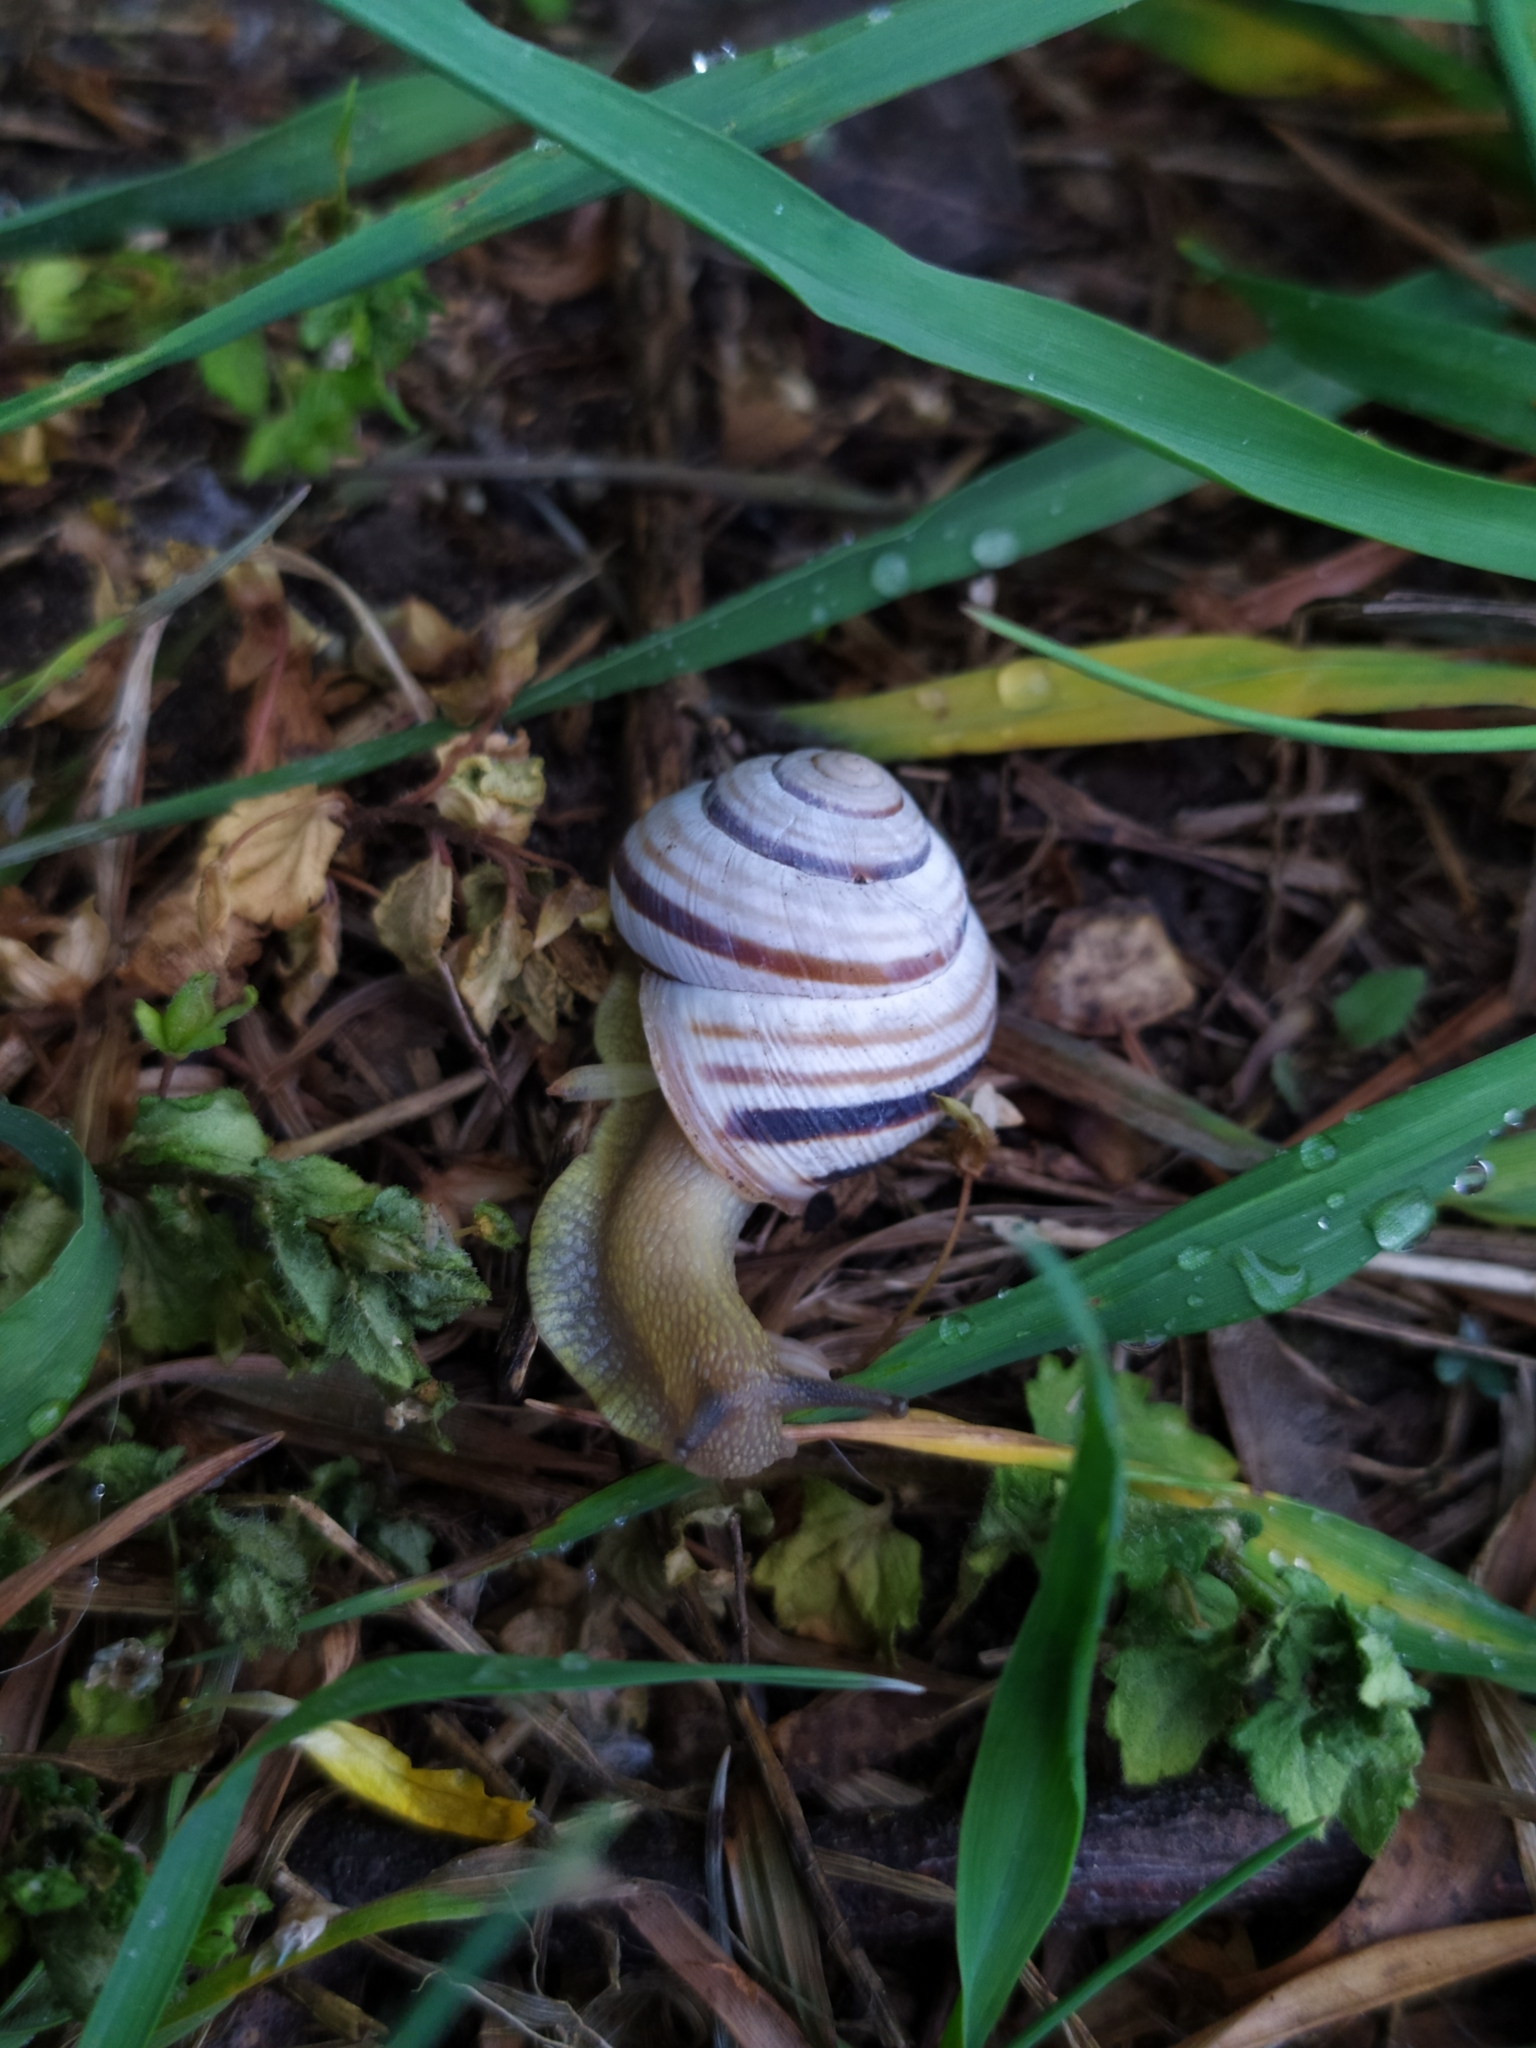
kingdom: Animalia
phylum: Mollusca
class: Gastropoda
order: Stylommatophora
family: Helicidae
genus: Caucasotachea
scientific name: Caucasotachea vindobonensis
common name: European helicid land snail
